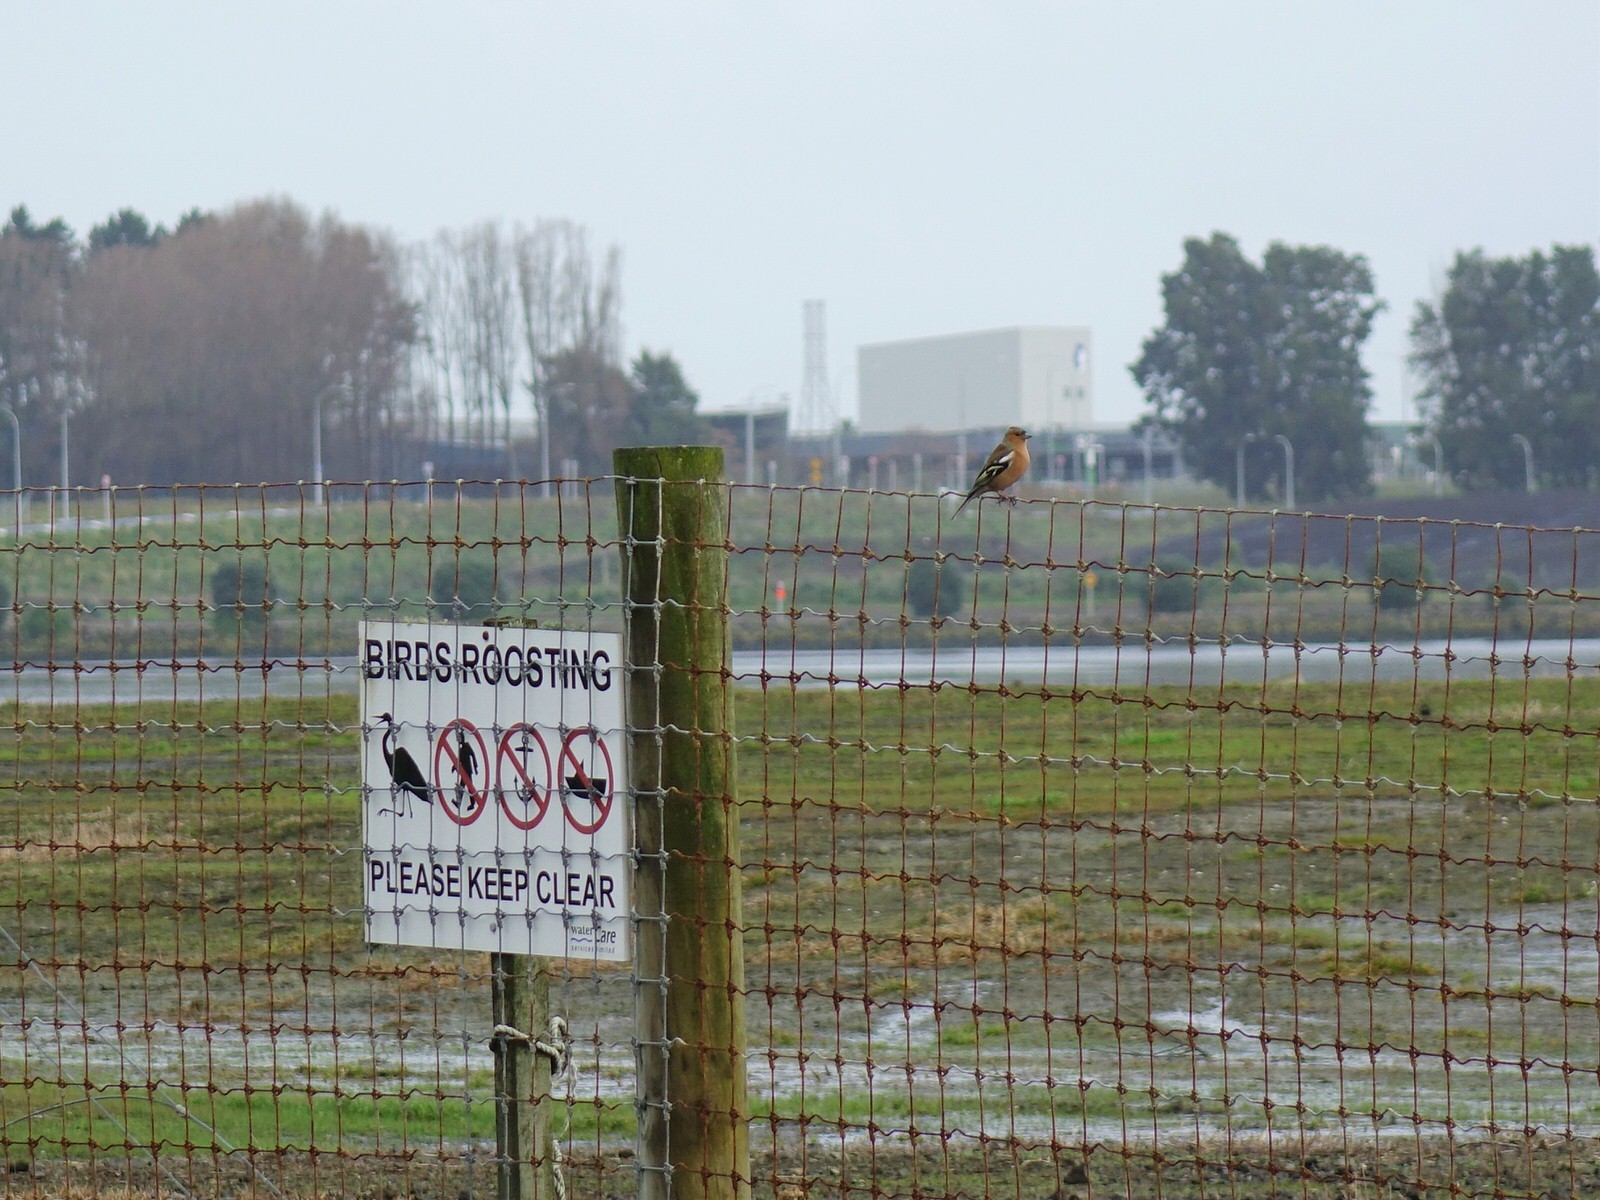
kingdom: Animalia
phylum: Chordata
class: Aves
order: Passeriformes
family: Fringillidae
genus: Fringilla
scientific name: Fringilla coelebs
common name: Common chaffinch
